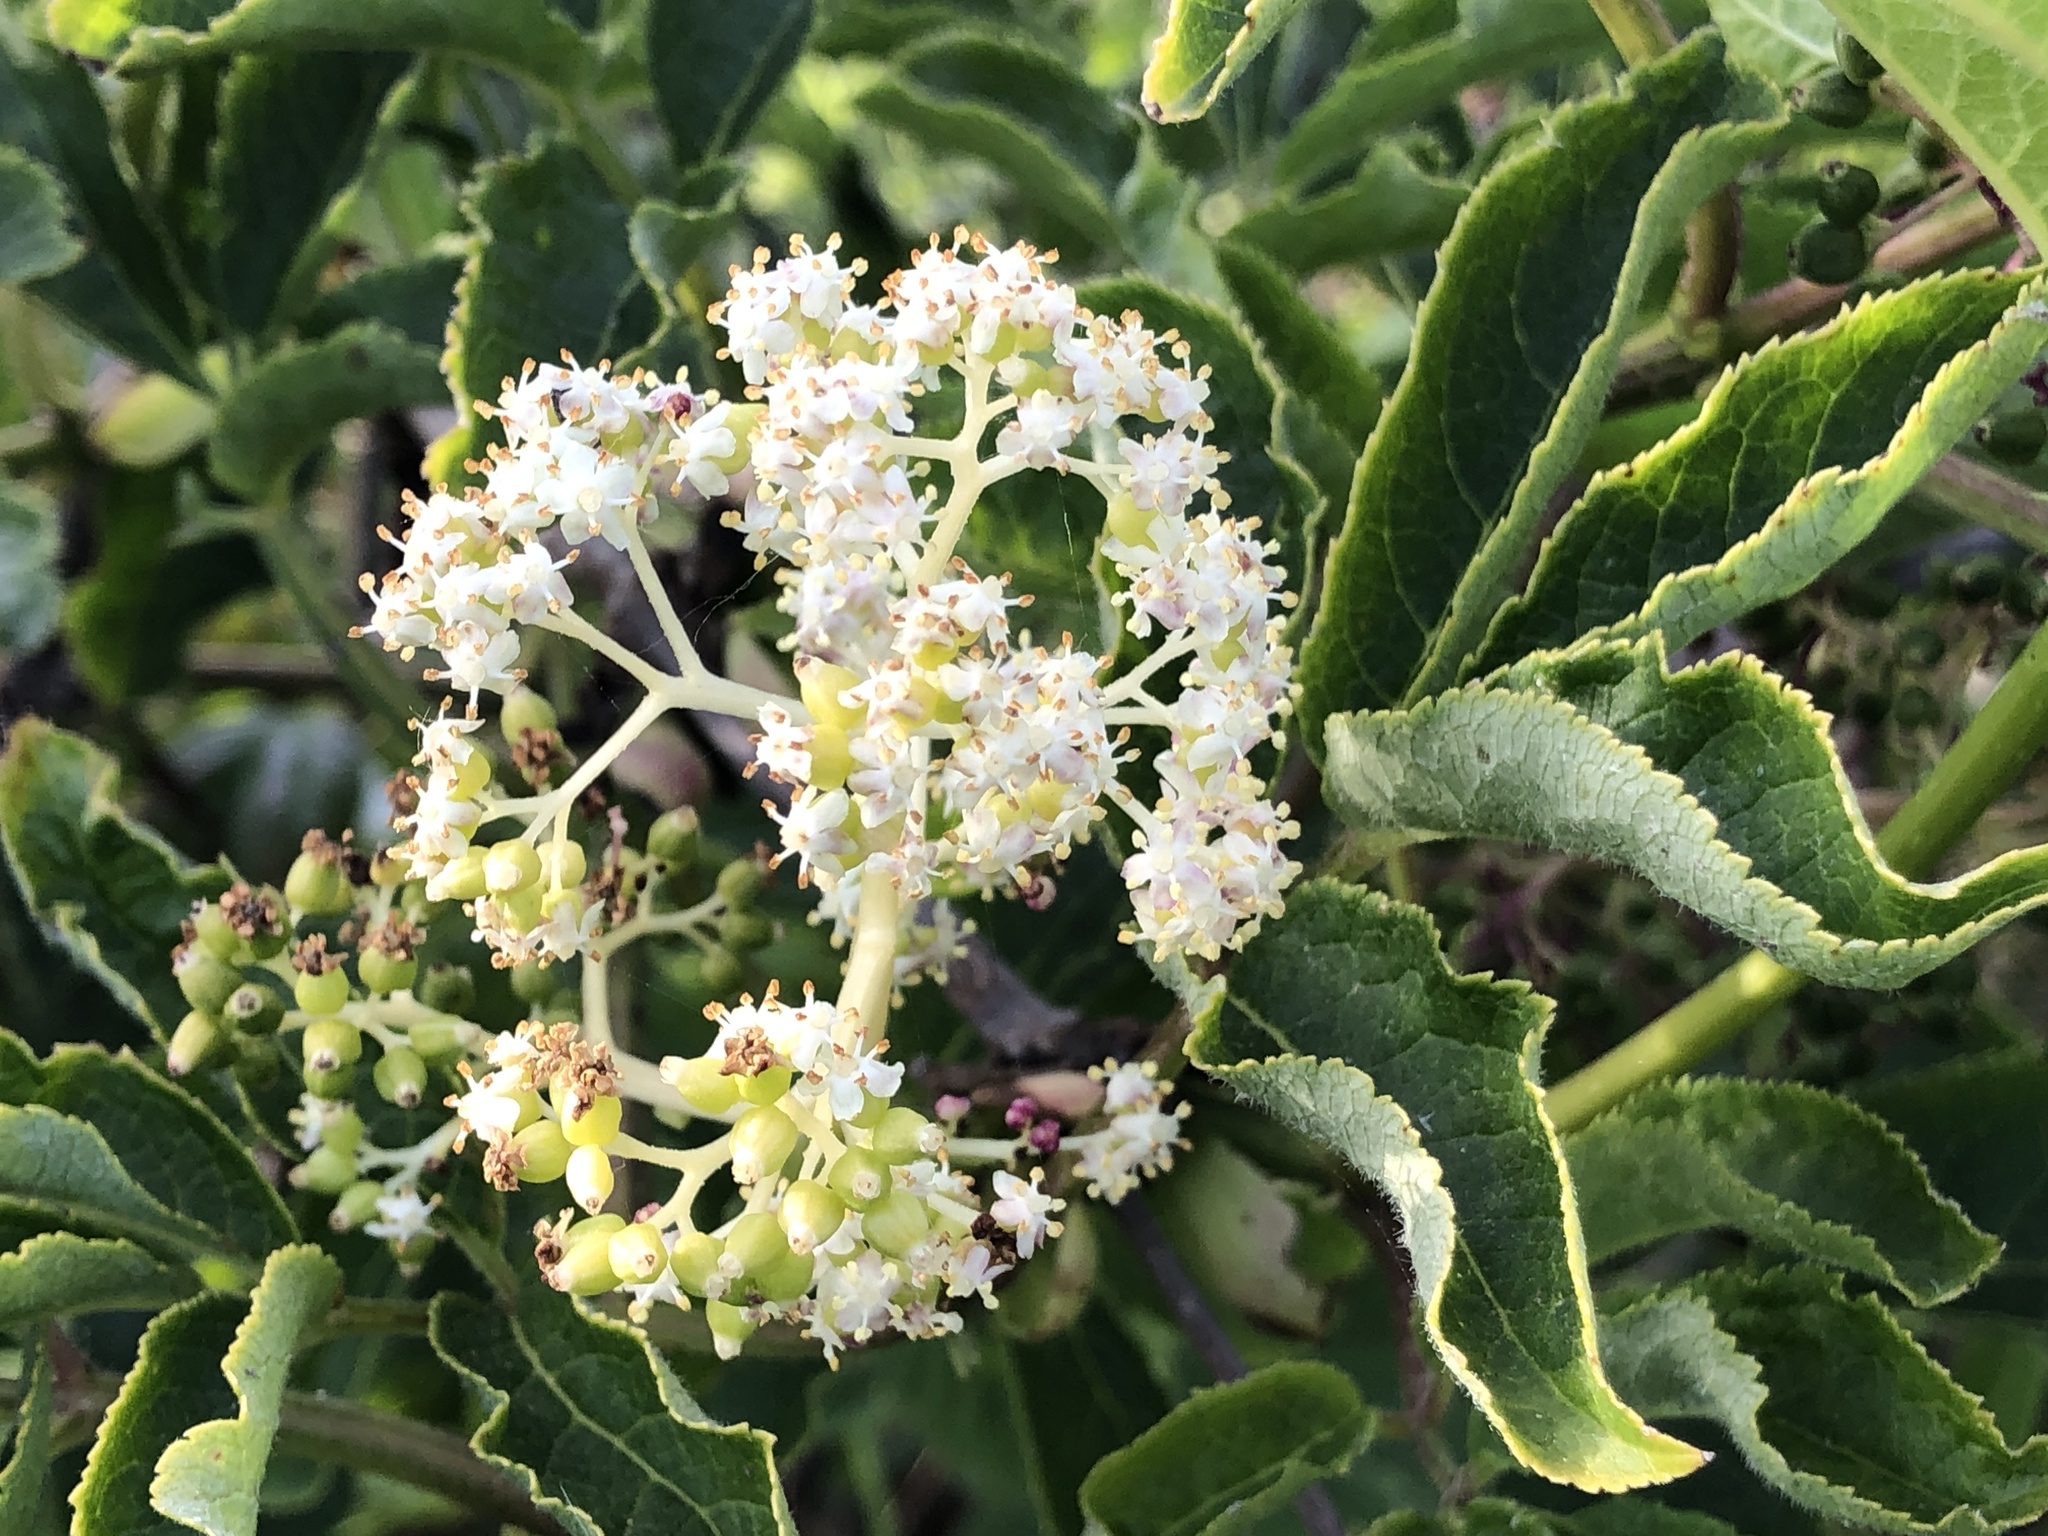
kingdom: Plantae
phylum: Tracheophyta
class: Magnoliopsida
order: Dipsacales
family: Viburnaceae
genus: Sambucus
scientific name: Sambucus racemosa
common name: Red-berried elder
